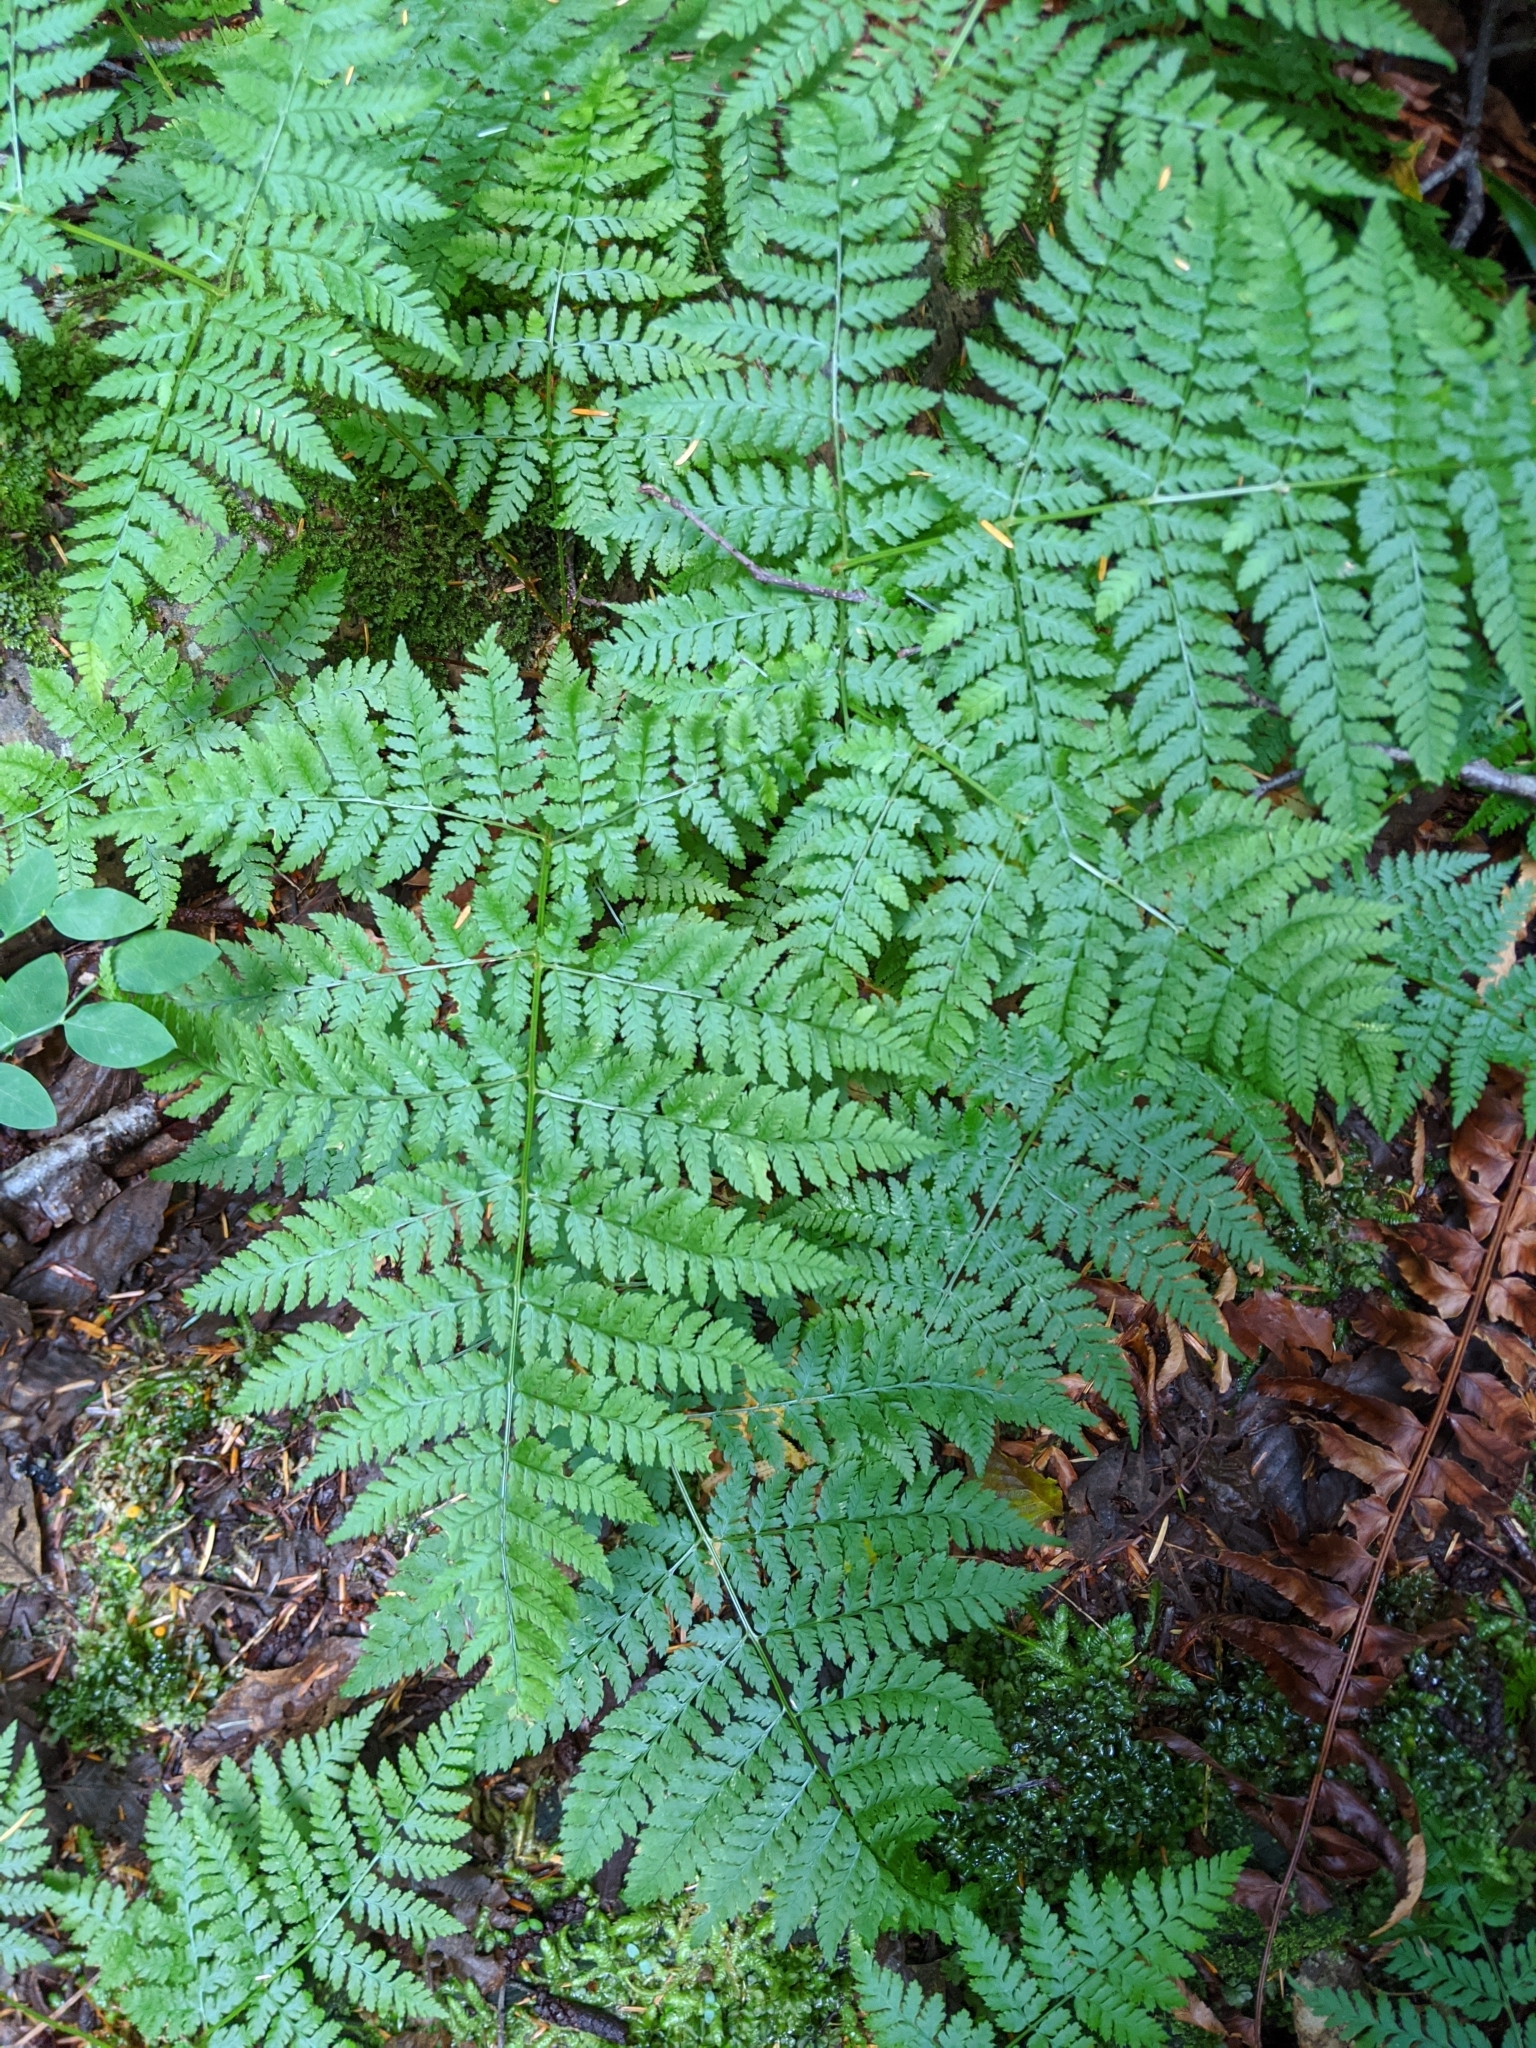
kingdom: Plantae
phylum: Tracheophyta
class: Polypodiopsida
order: Polypodiales
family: Dryopteridaceae
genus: Dryopteris
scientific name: Dryopteris expansa
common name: Northern buckler fern
